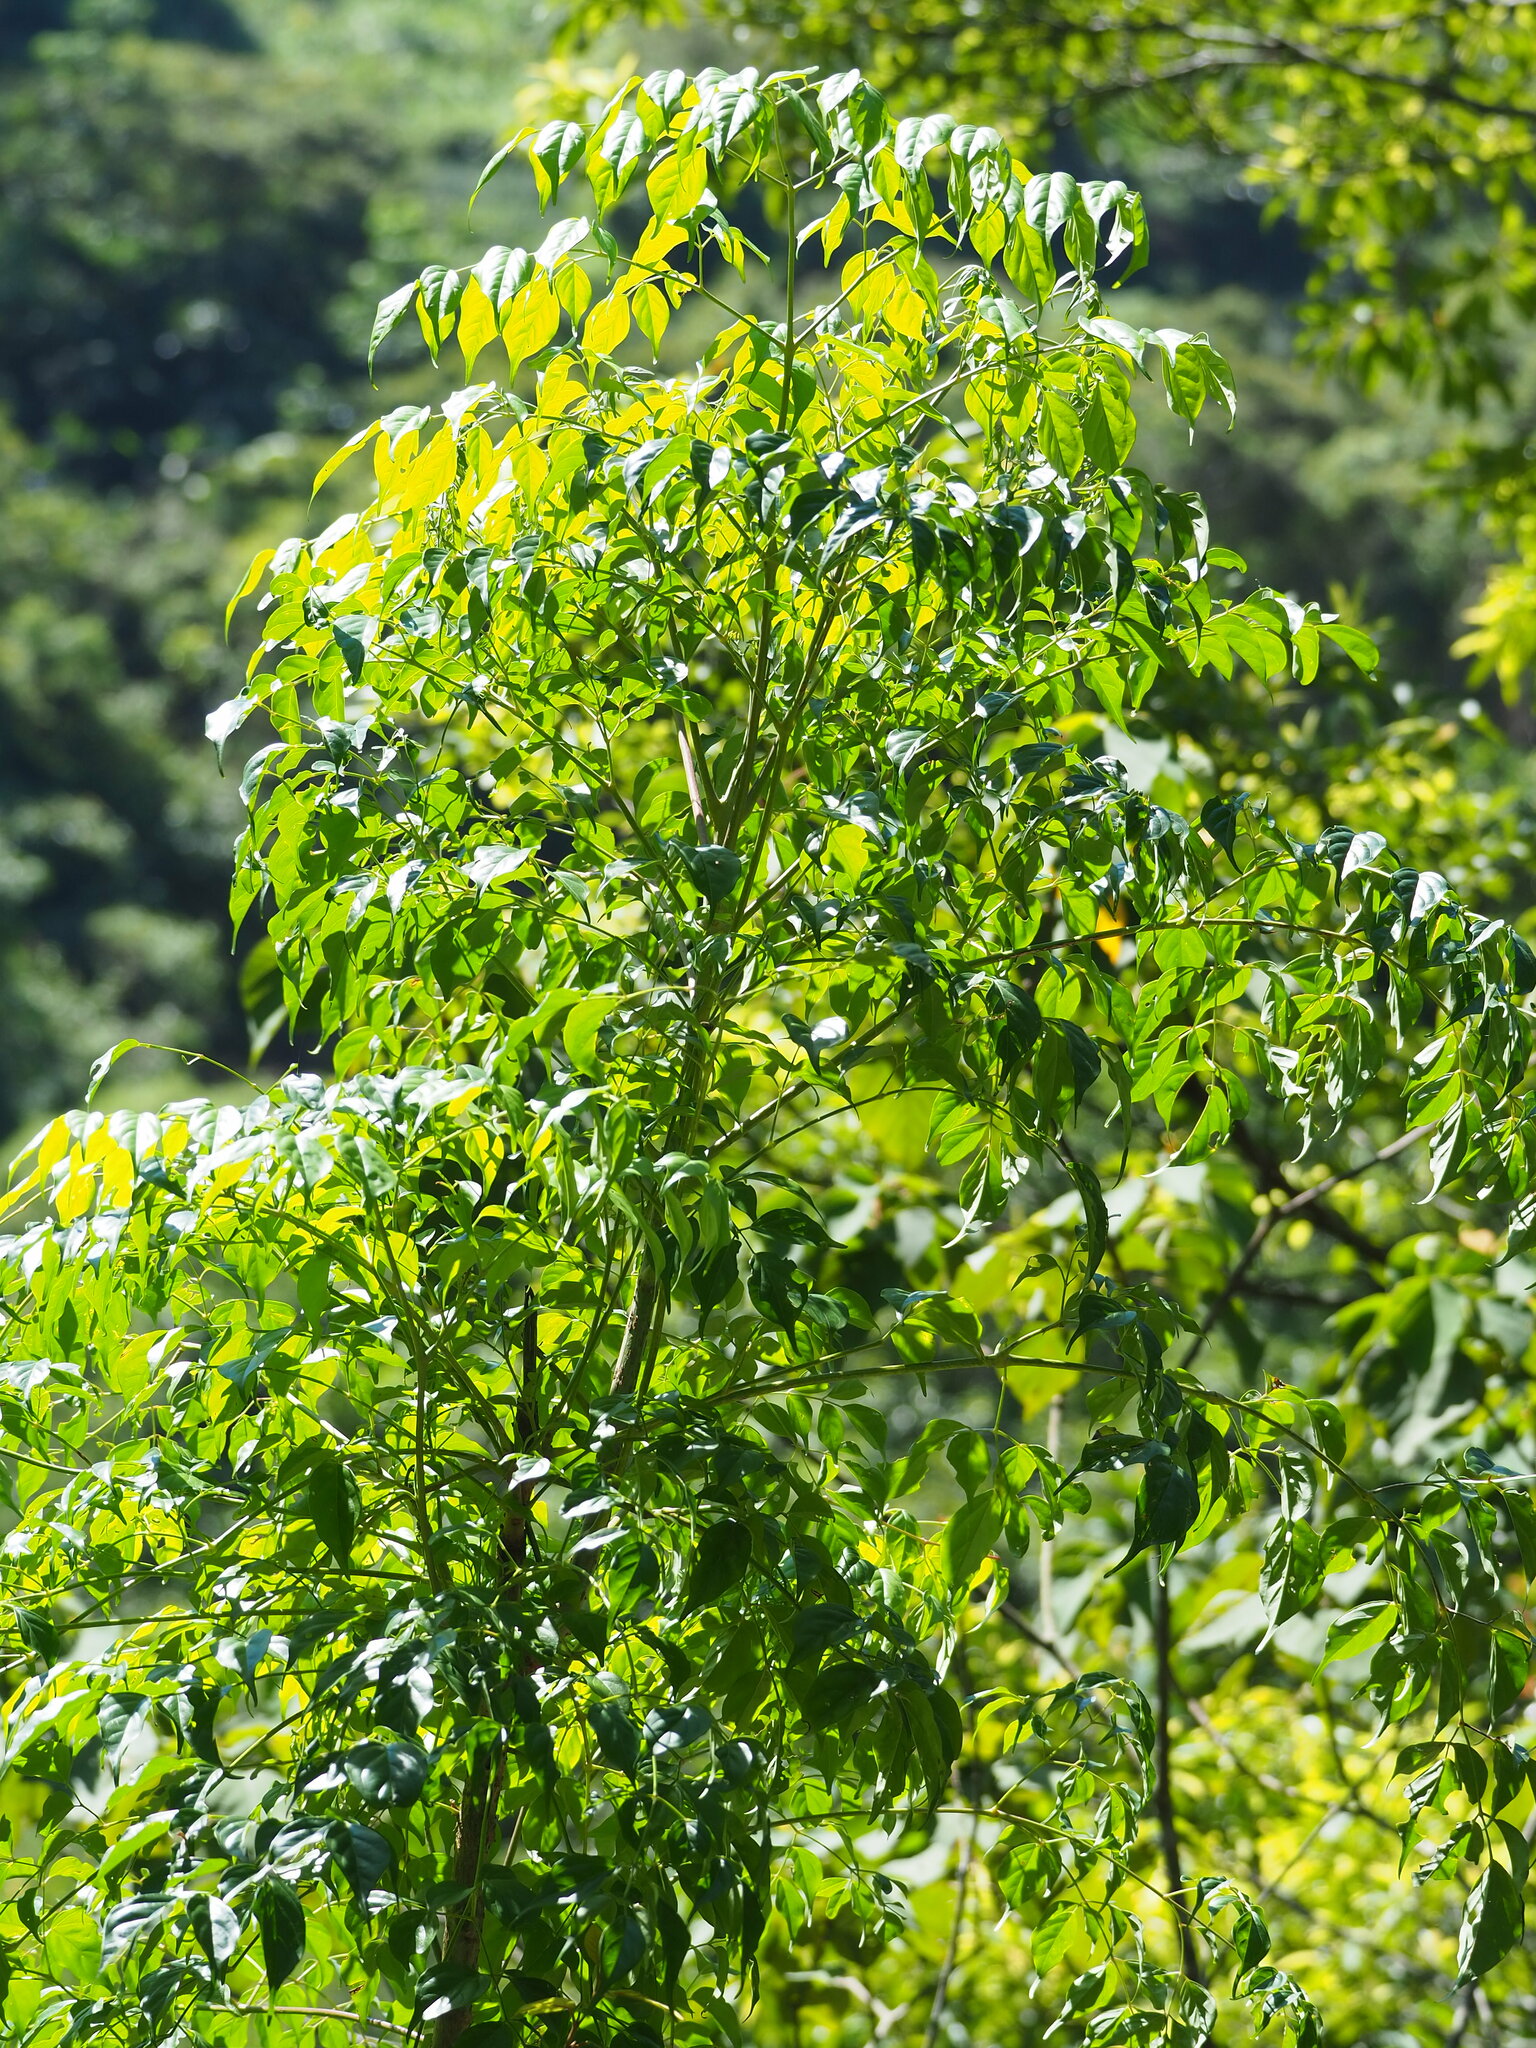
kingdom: Plantae
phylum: Tracheophyta
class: Magnoliopsida
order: Lamiales
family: Bignoniaceae
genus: Radermachera
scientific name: Radermachera sinica
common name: China doll plant
